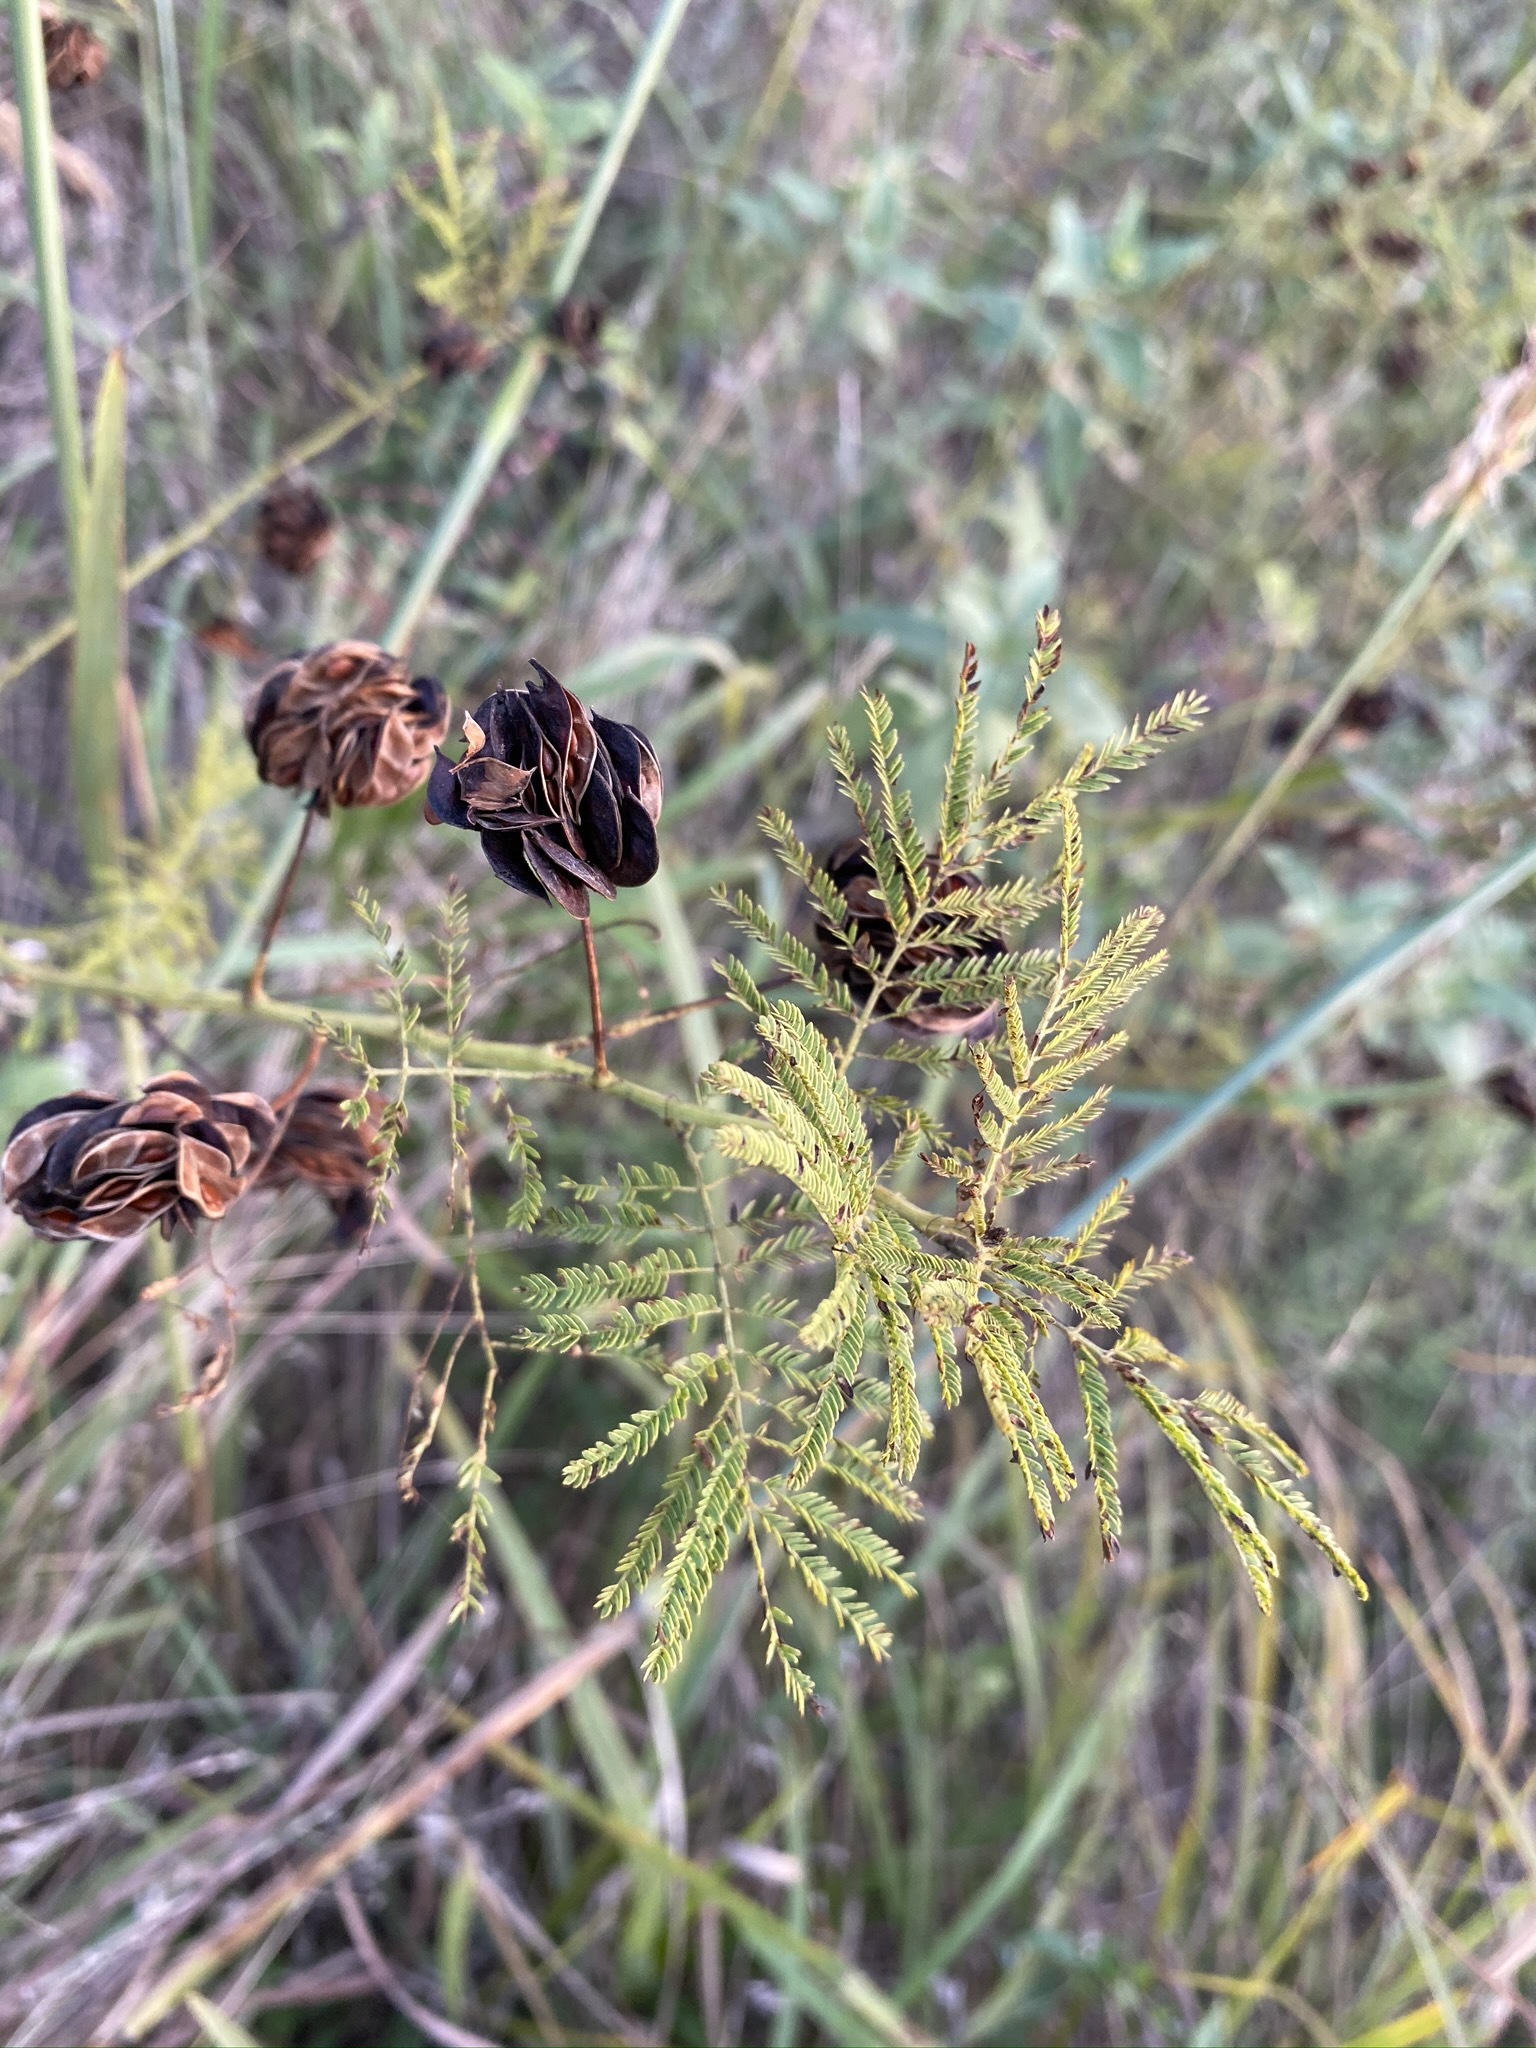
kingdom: Plantae
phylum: Tracheophyta
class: Magnoliopsida
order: Fabales
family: Fabaceae
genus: Desmanthus
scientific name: Desmanthus illinoensis
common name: Illinois bundle-flower
